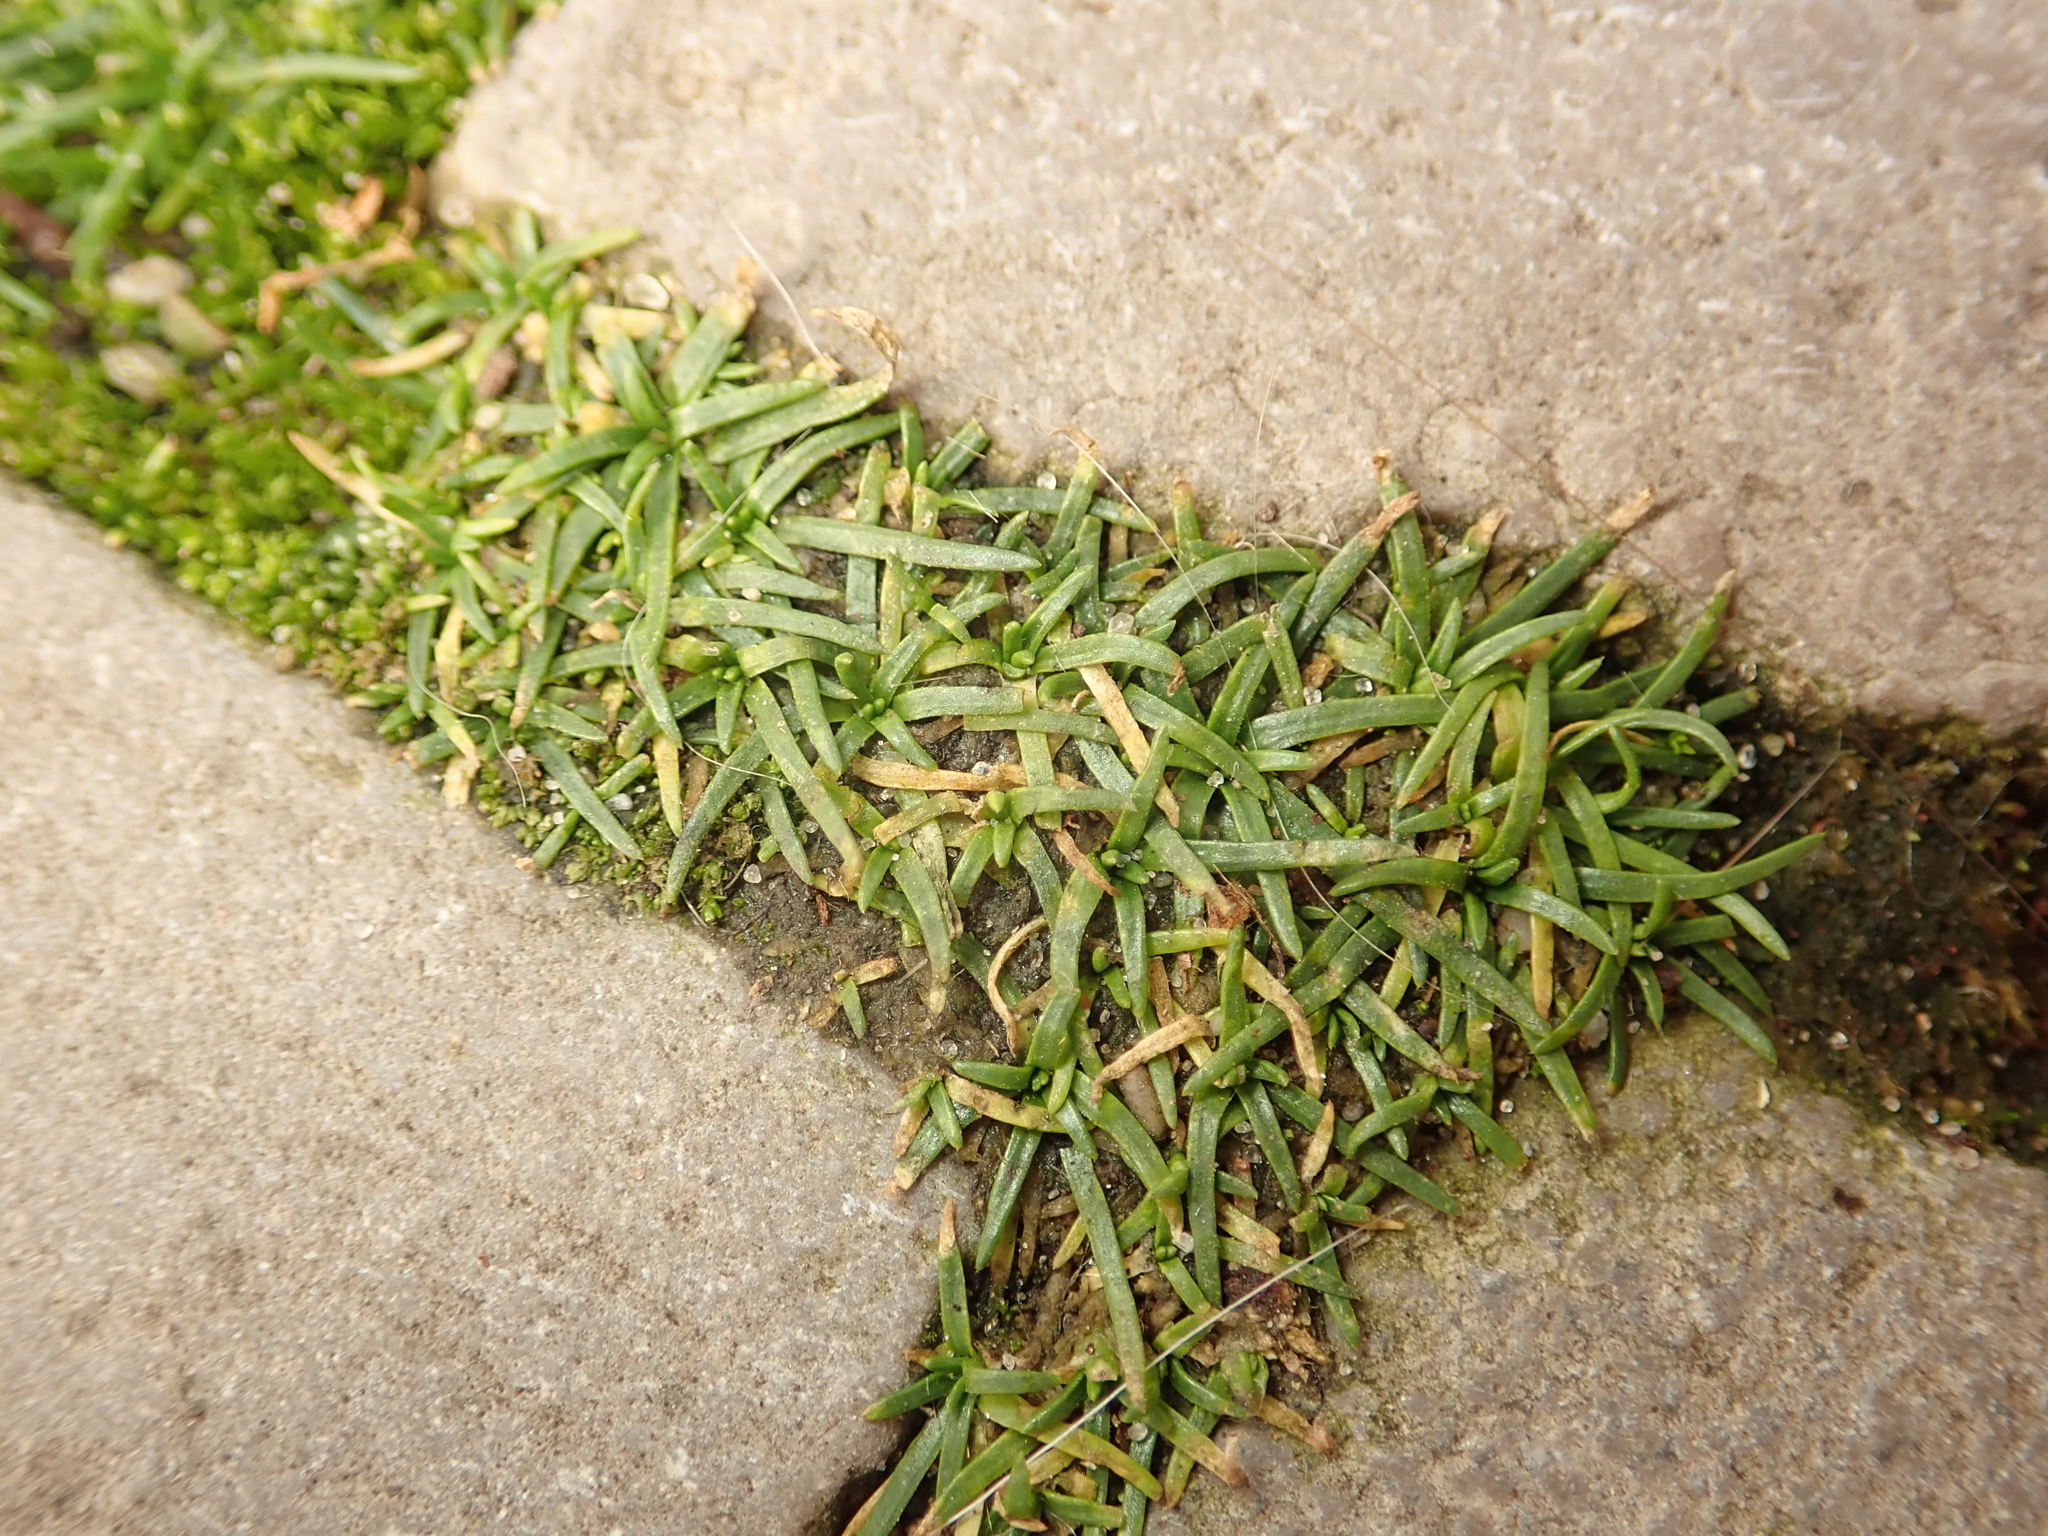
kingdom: Plantae
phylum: Tracheophyta
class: Magnoliopsida
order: Caryophyllales
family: Caryophyllaceae
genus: Sagina
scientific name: Sagina procumbens
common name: Procumbent pearlwort
